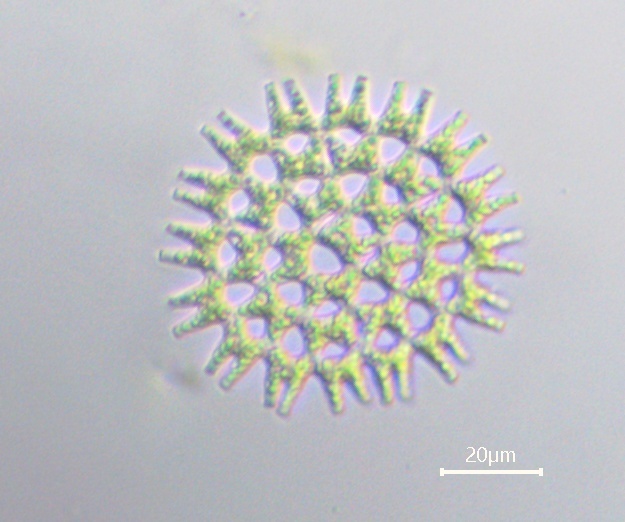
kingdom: Plantae
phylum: Chlorophyta
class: Chlorophyceae
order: Sphaeropleales
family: Hydrodictyaceae
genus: Pediastrum
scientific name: Pediastrum duplex
